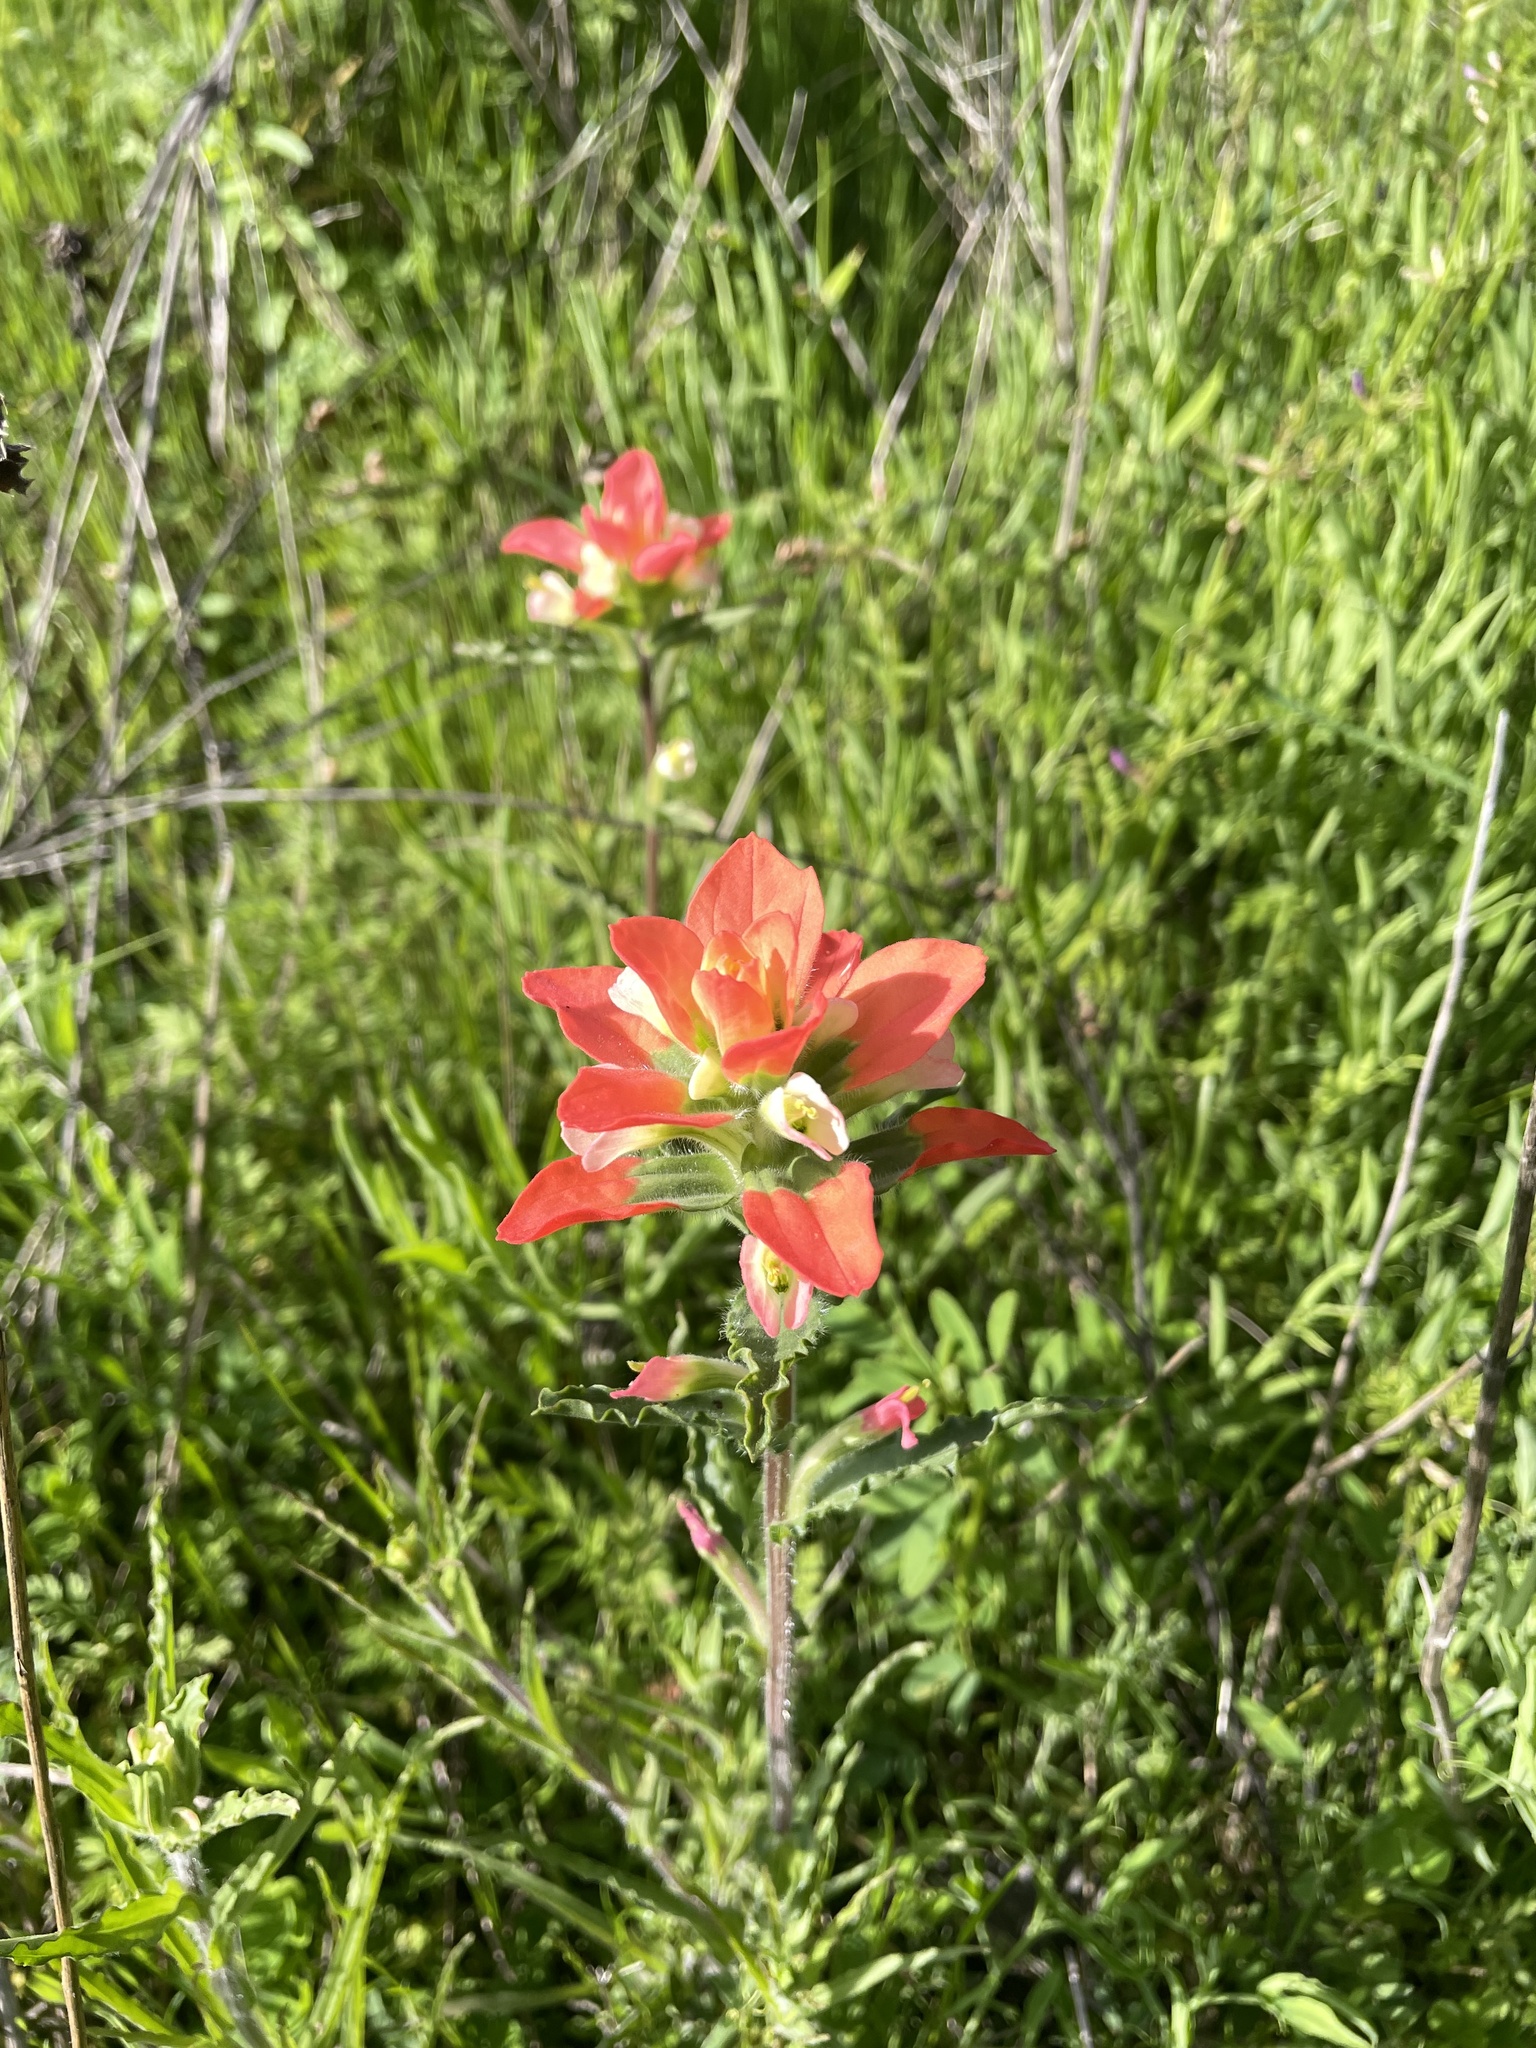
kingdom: Plantae
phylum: Tracheophyta
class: Magnoliopsida
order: Lamiales
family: Orobanchaceae
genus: Castilleja
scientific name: Castilleja indivisa
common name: Texas paintbrush
